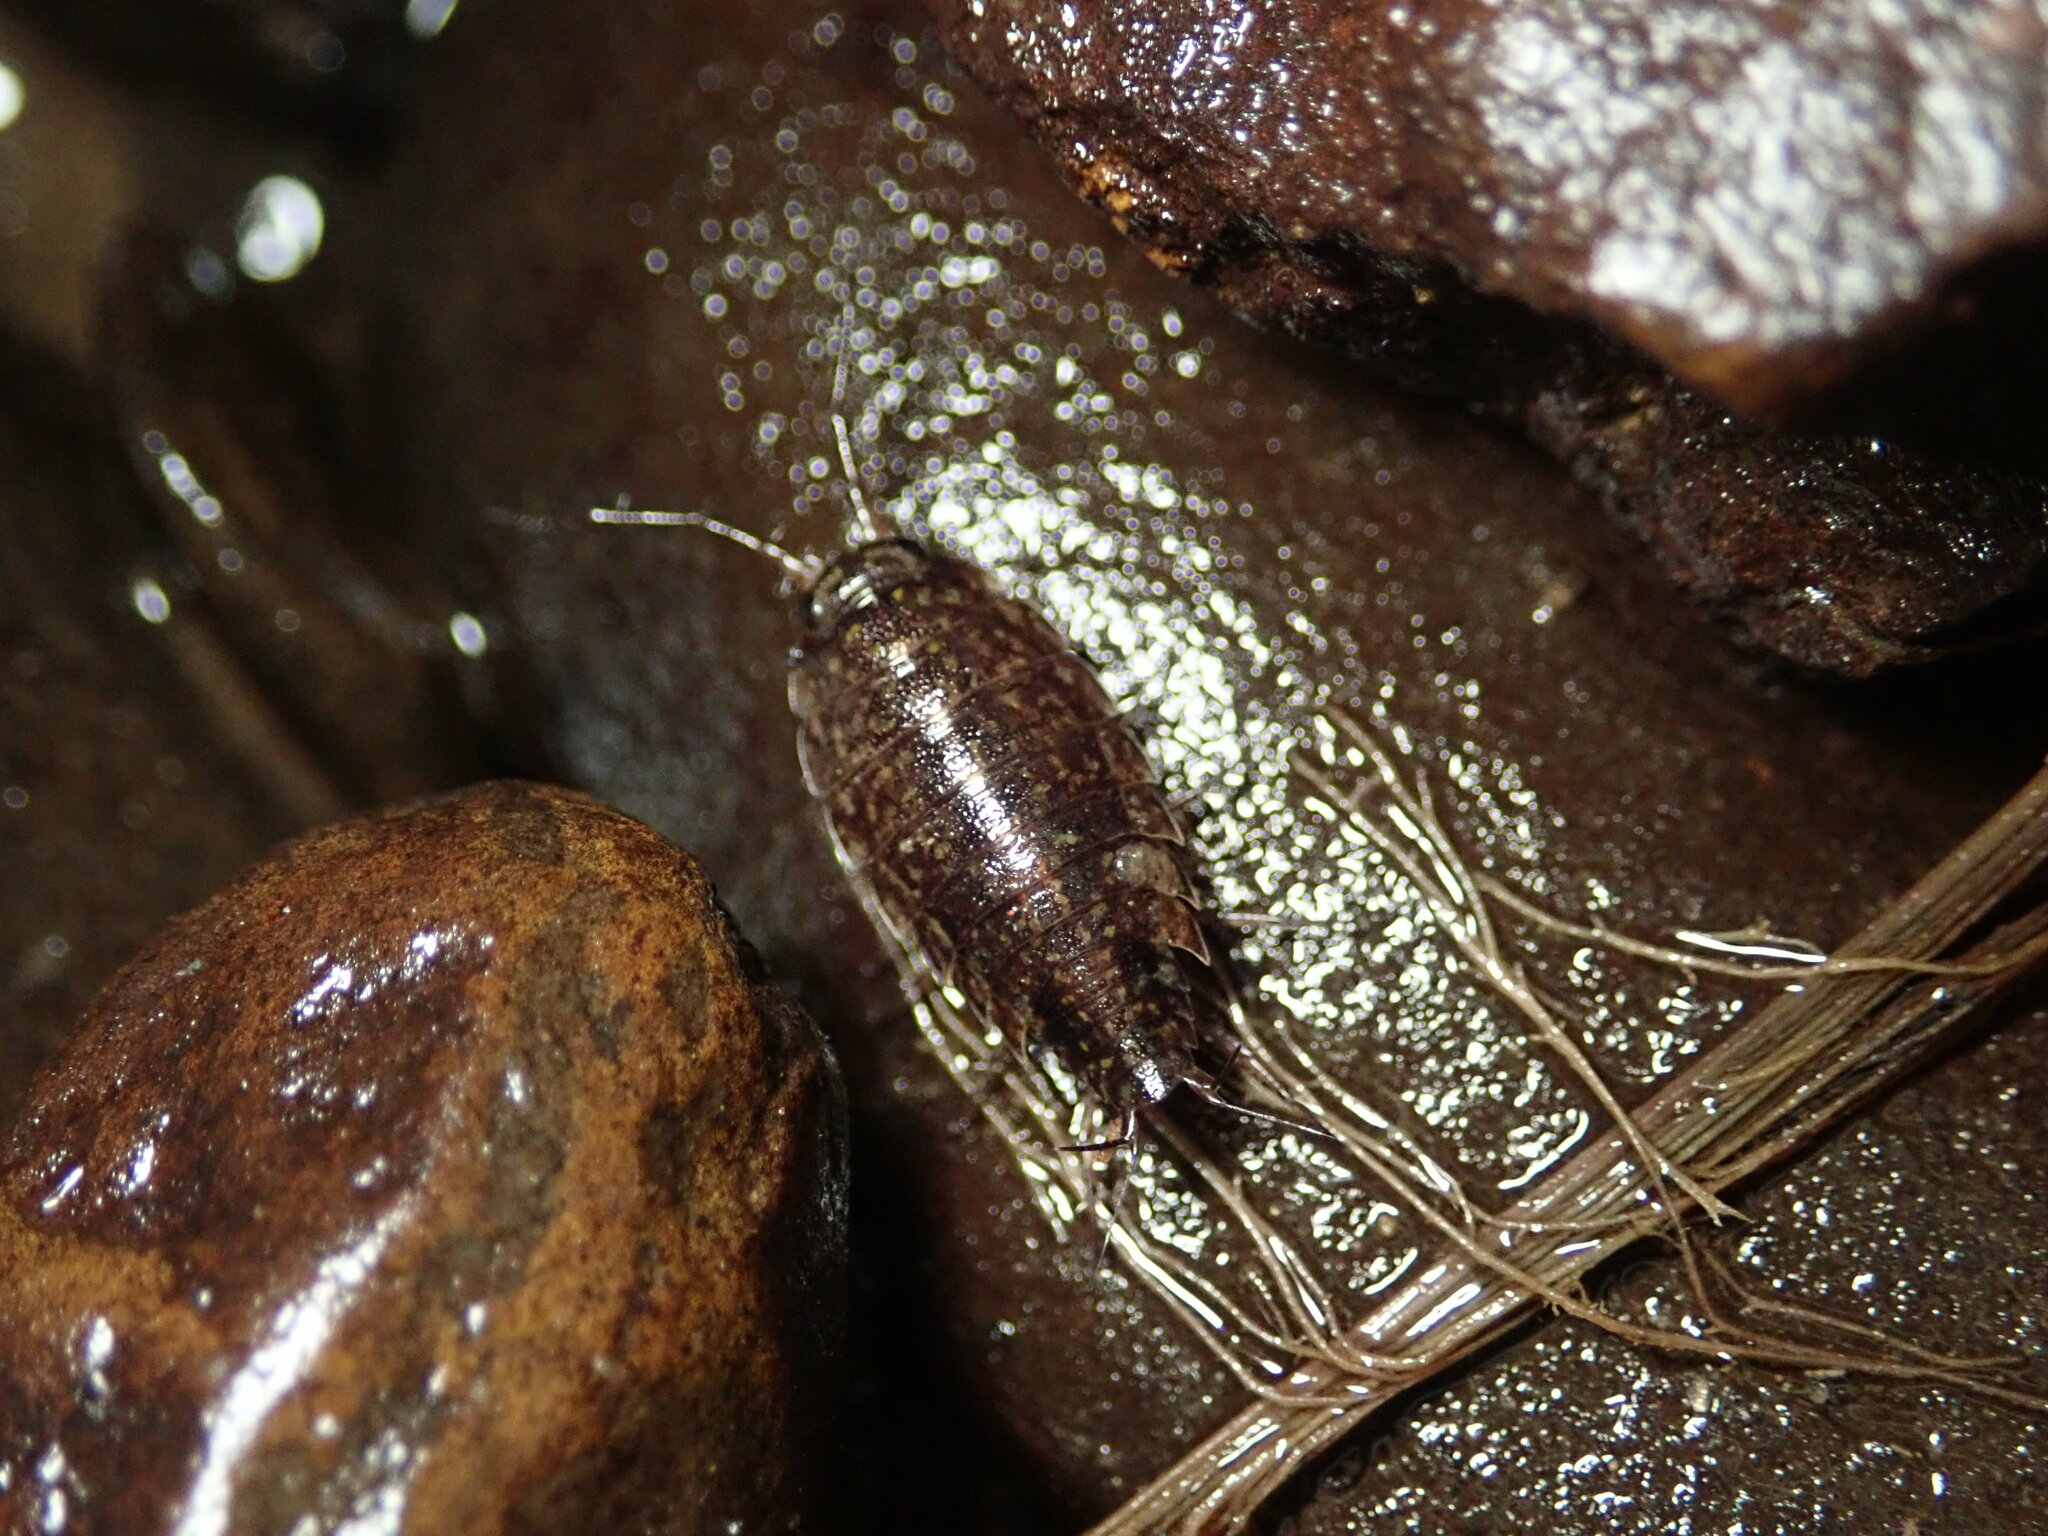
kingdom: Animalia
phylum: Arthropoda
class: Malacostraca
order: Isopoda
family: Ligiidae
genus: Ligidium
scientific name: Ligidium latum
